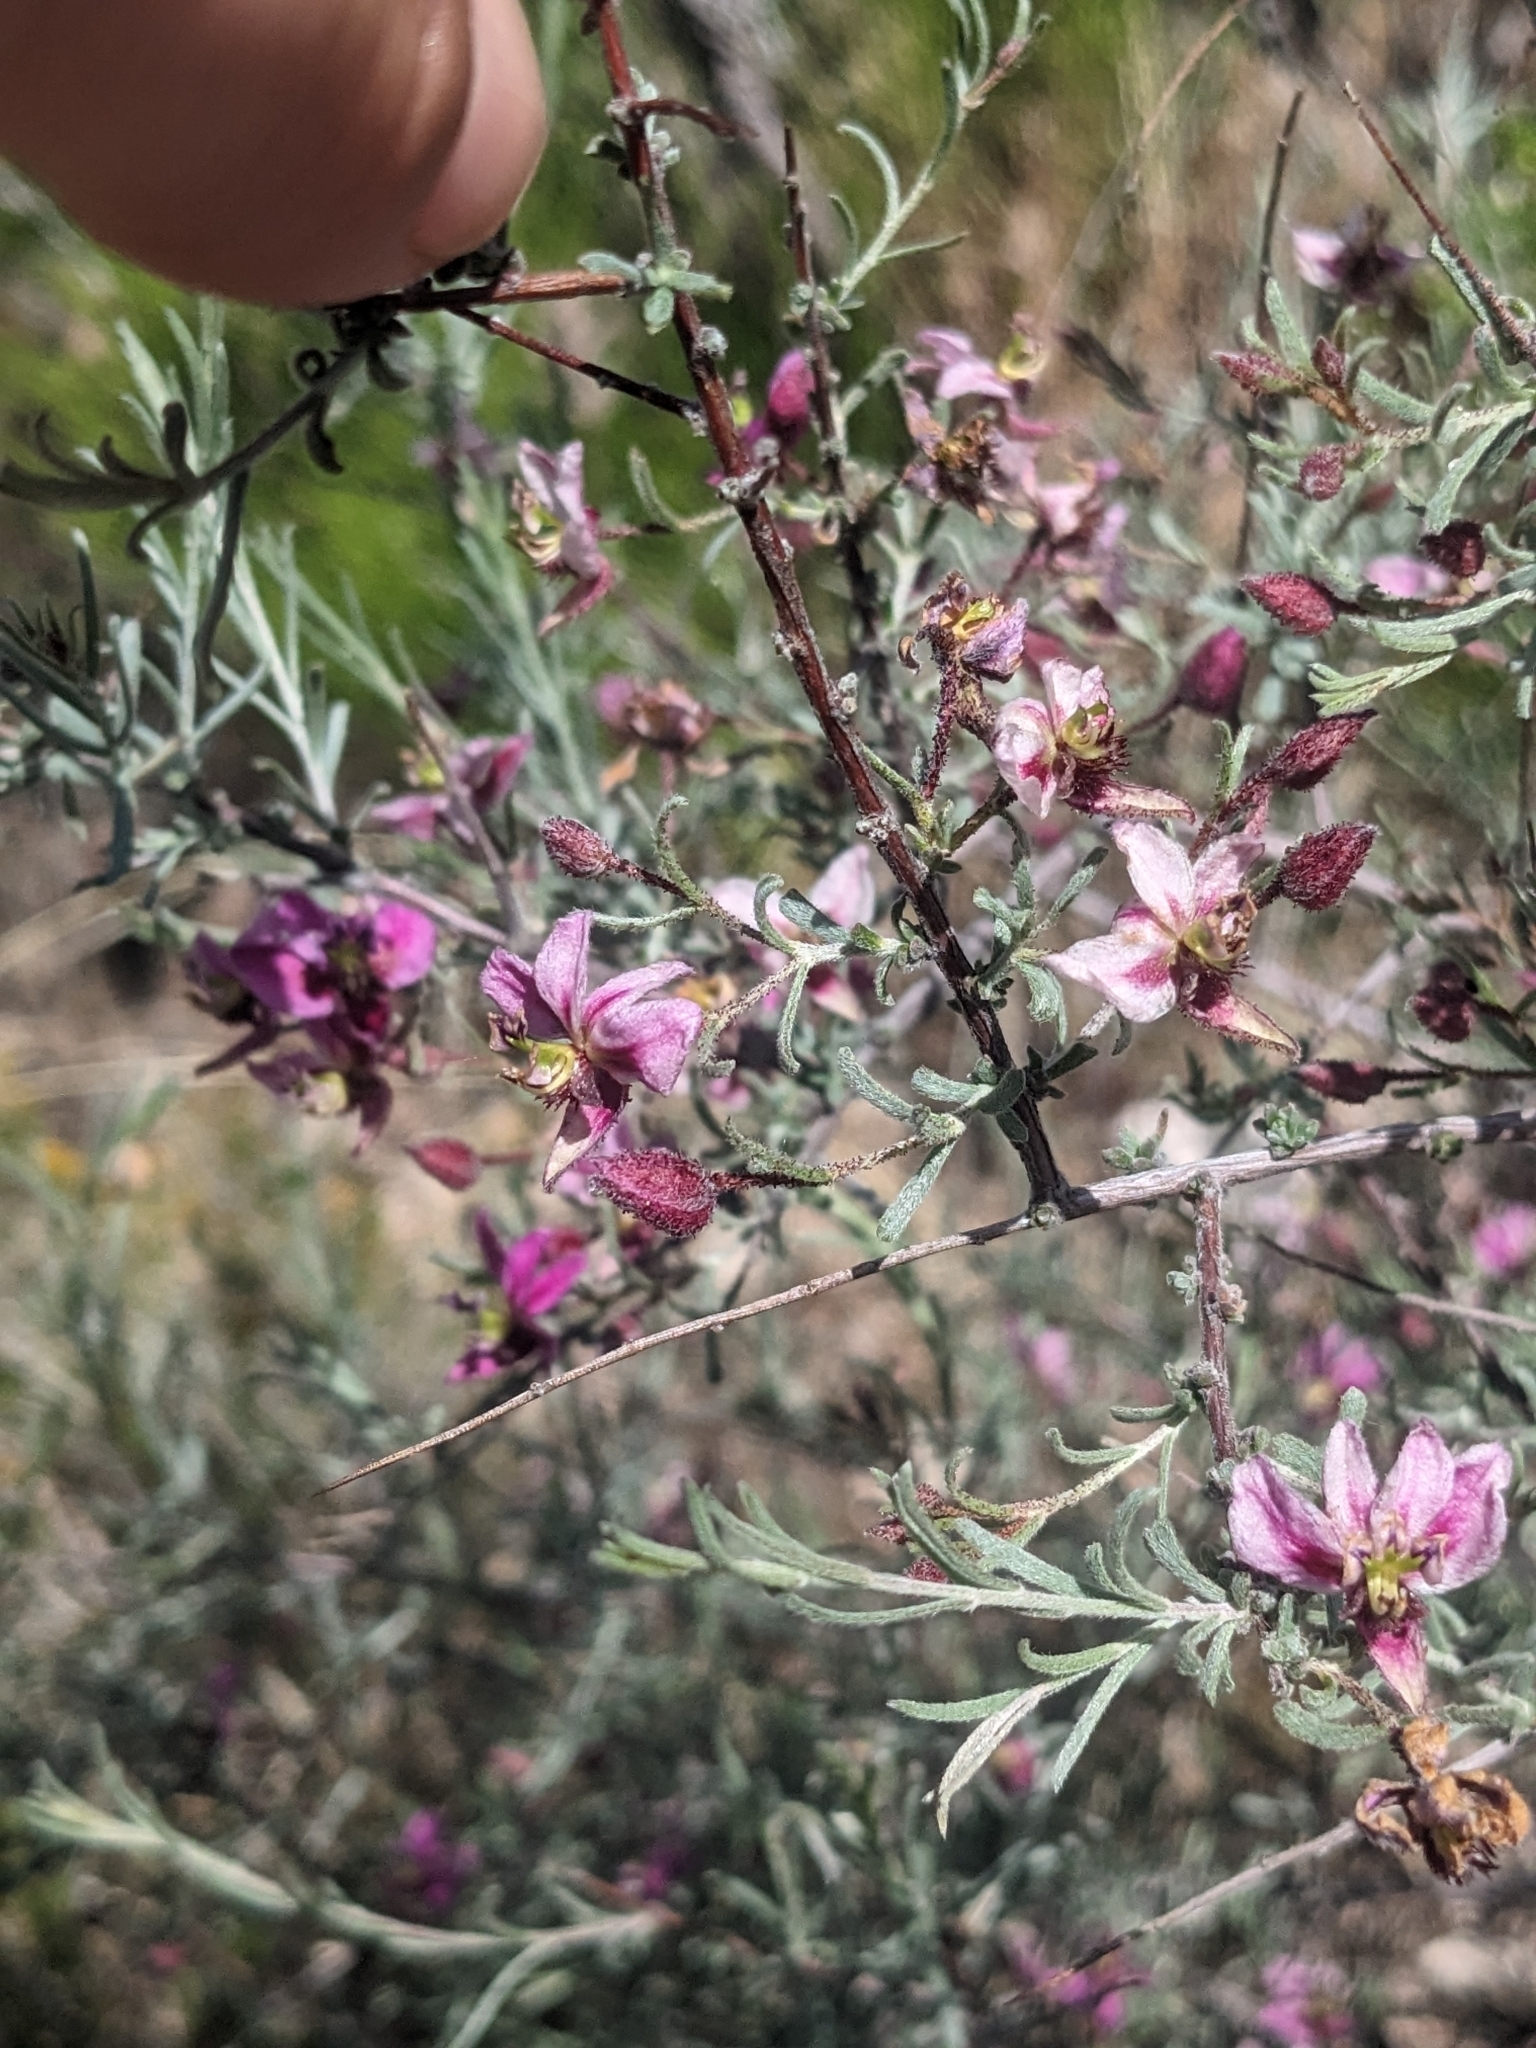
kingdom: Plantae
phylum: Tracheophyta
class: Magnoliopsida
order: Zygophyllales
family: Krameriaceae
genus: Krameria
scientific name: Krameria erecta
